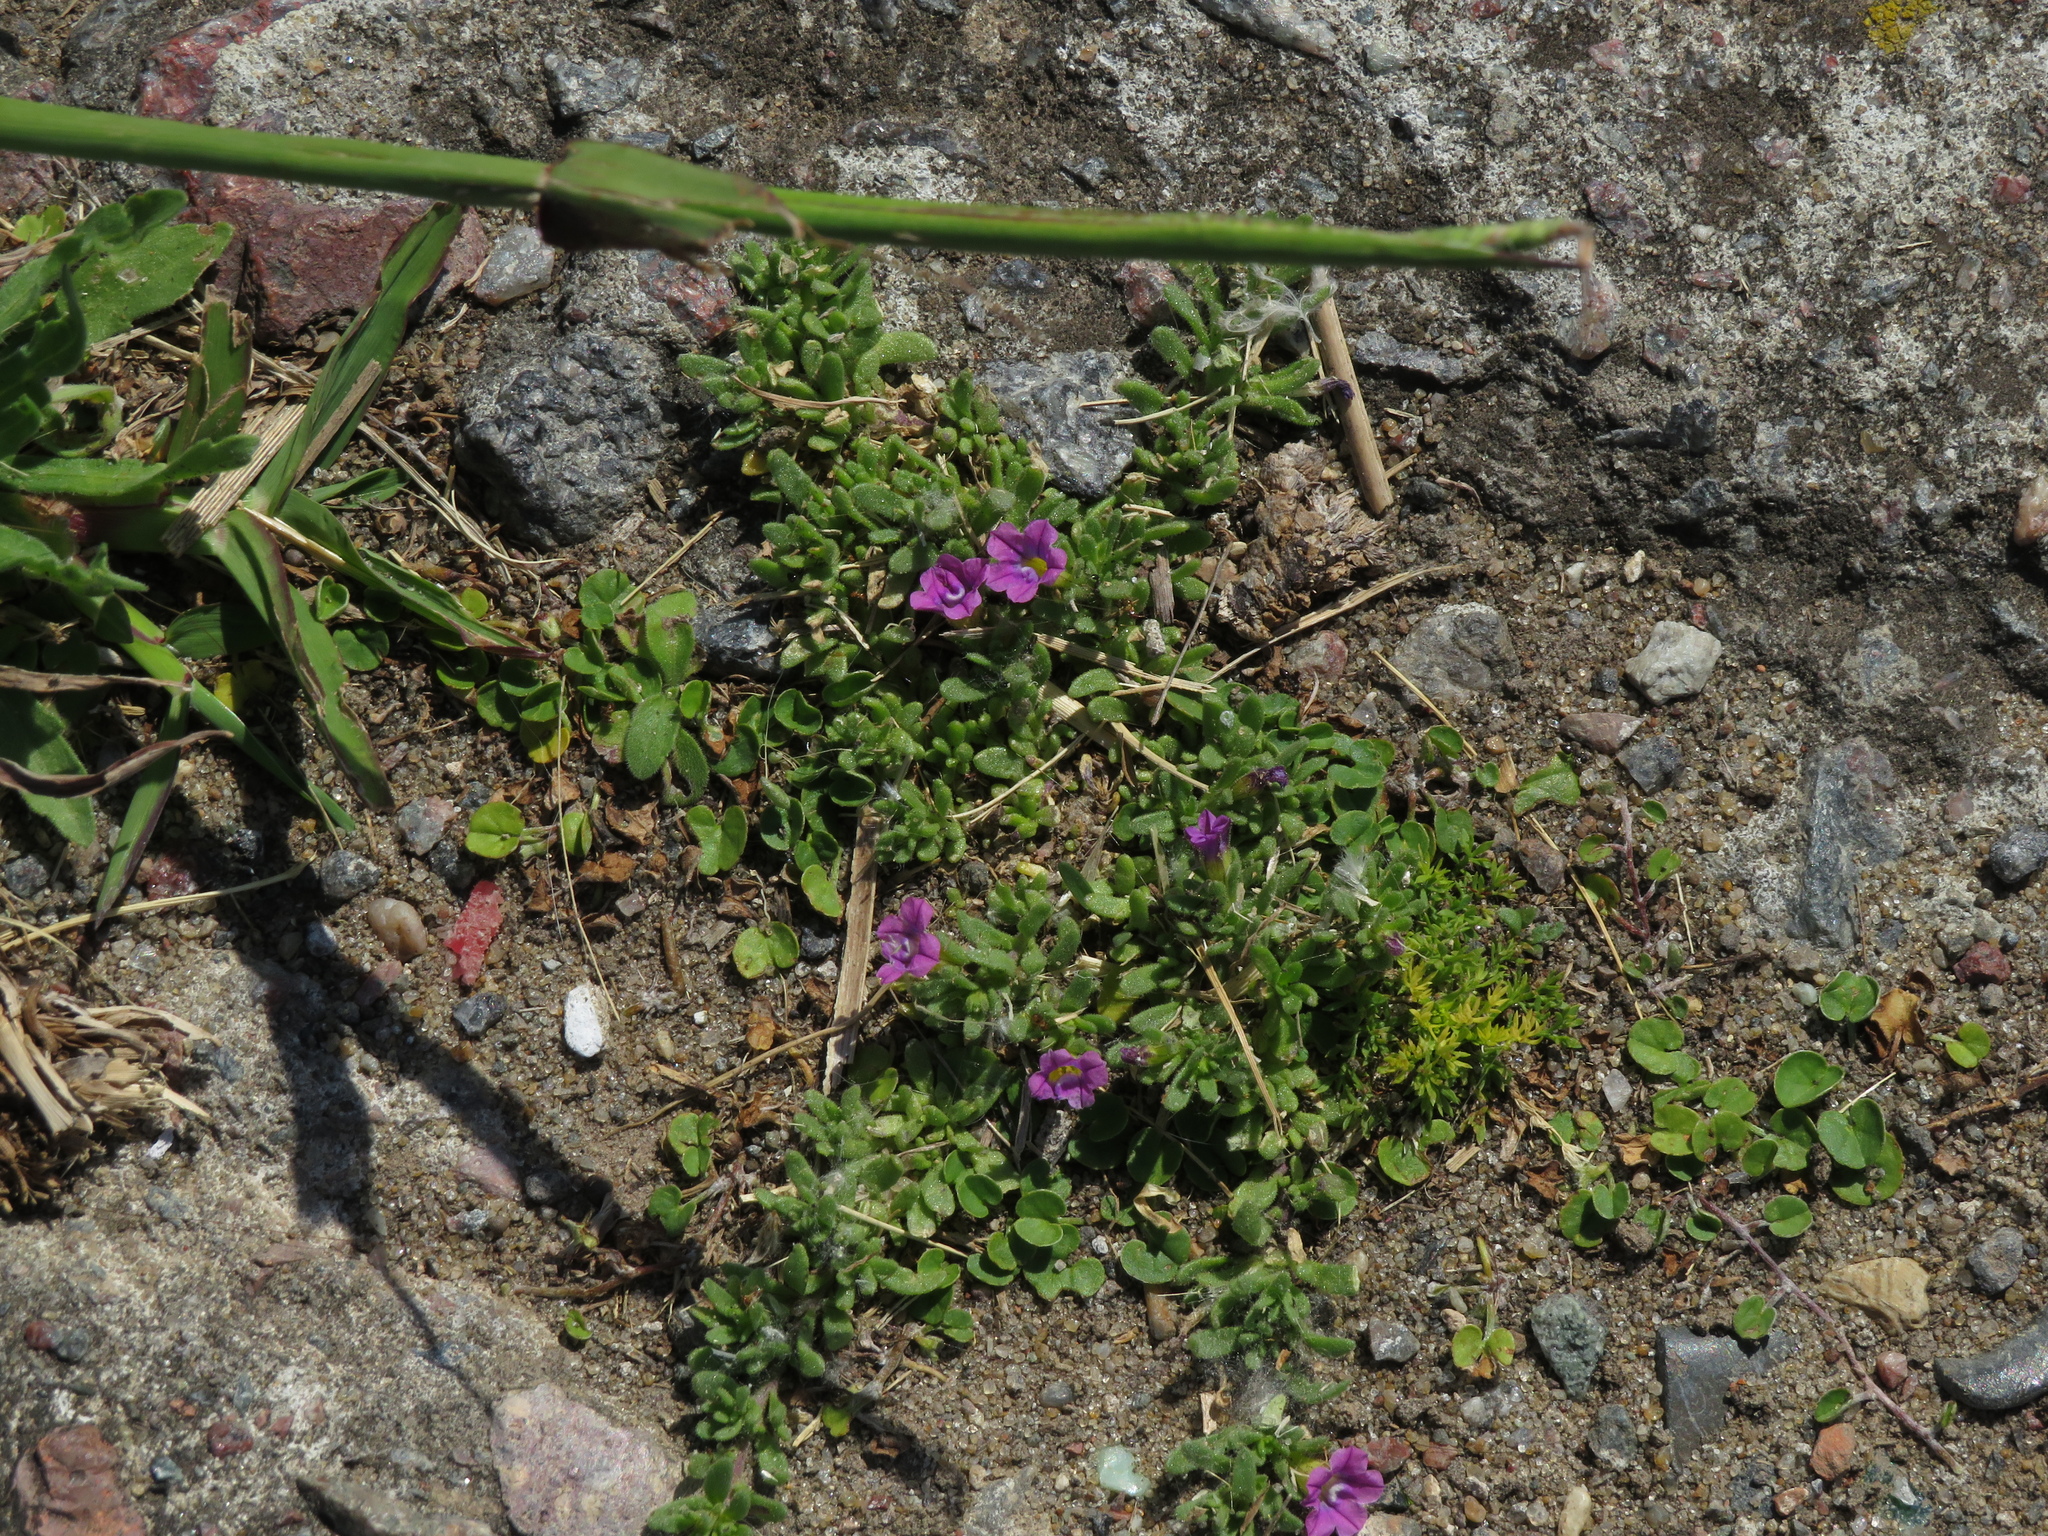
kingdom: Plantae
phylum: Tracheophyta
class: Magnoliopsida
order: Solanales
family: Solanaceae
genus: Calibrachoa
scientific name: Calibrachoa parviflora
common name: Seaside petunia
